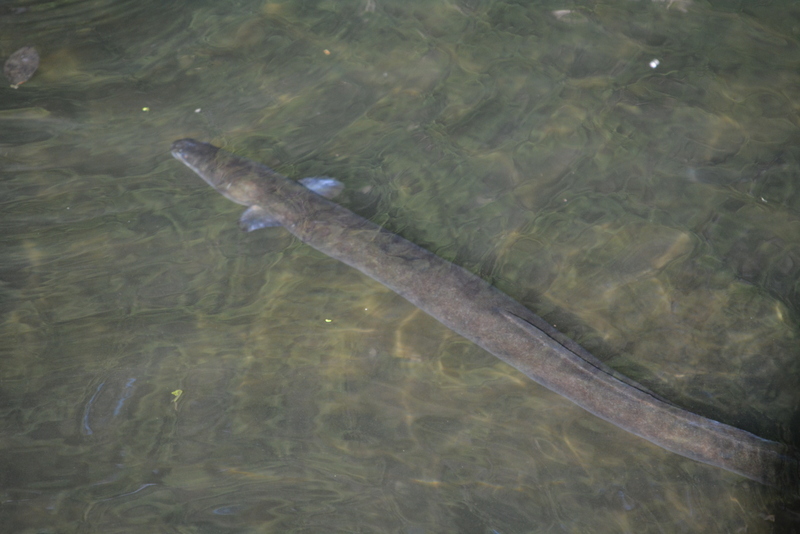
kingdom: Animalia
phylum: Chordata
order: Anguilliformes
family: Anguillidae
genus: Anguilla
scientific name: Anguilla australis
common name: Shortfin eel
